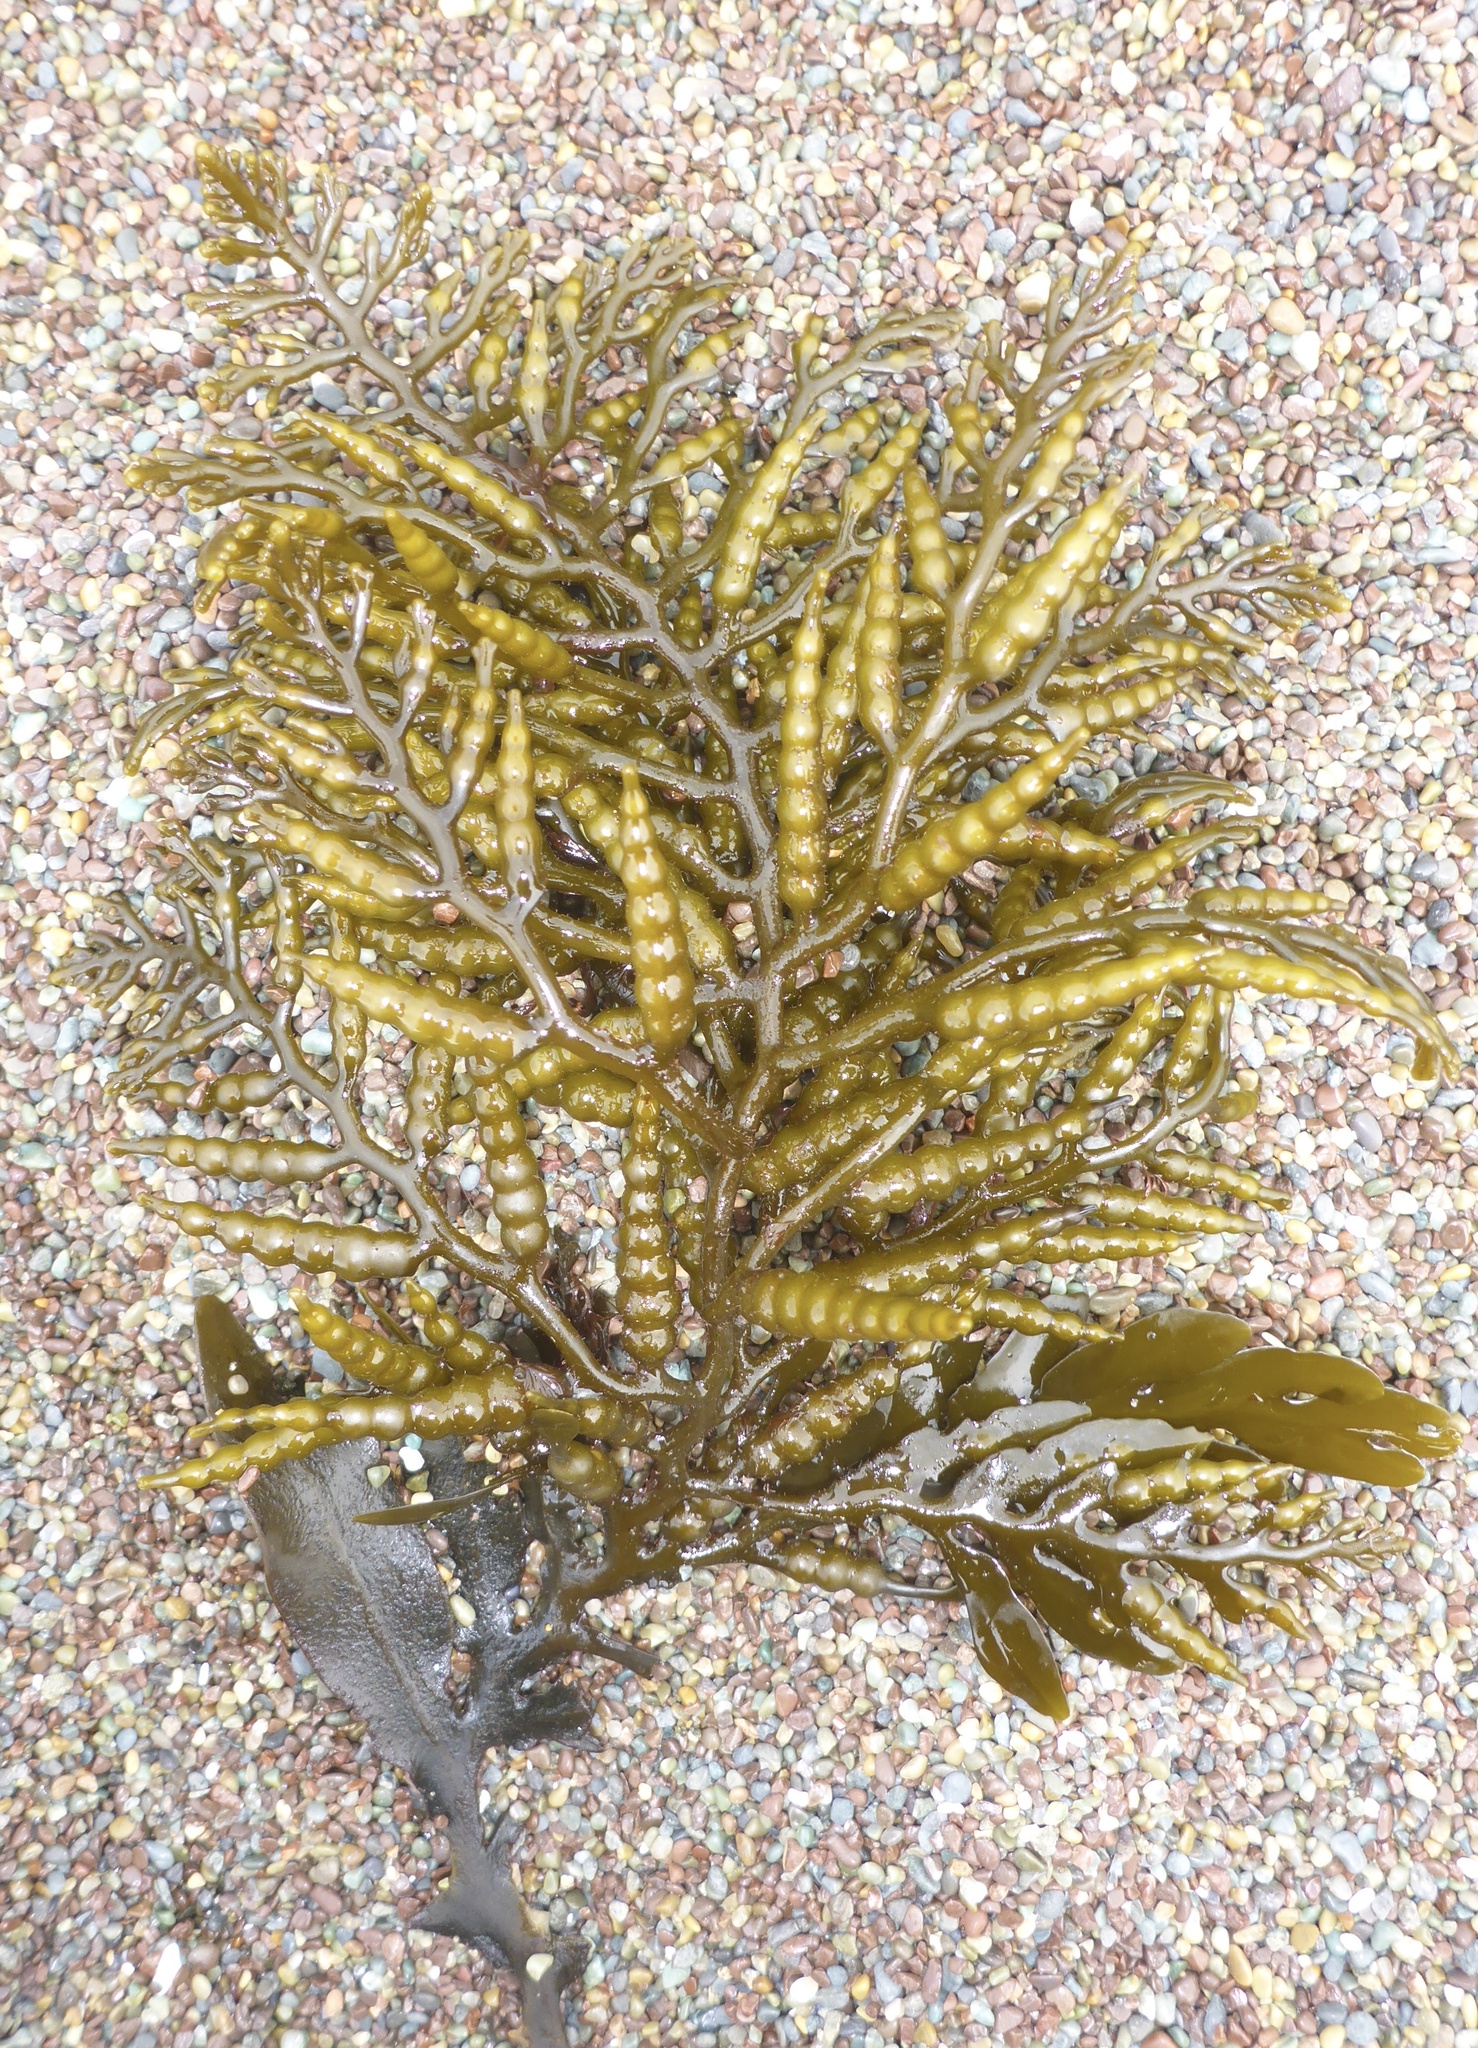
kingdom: Chromista
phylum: Ochrophyta
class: Phaeophyceae
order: Fucales
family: Sargassaceae
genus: Stephanocystis
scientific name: Stephanocystis
